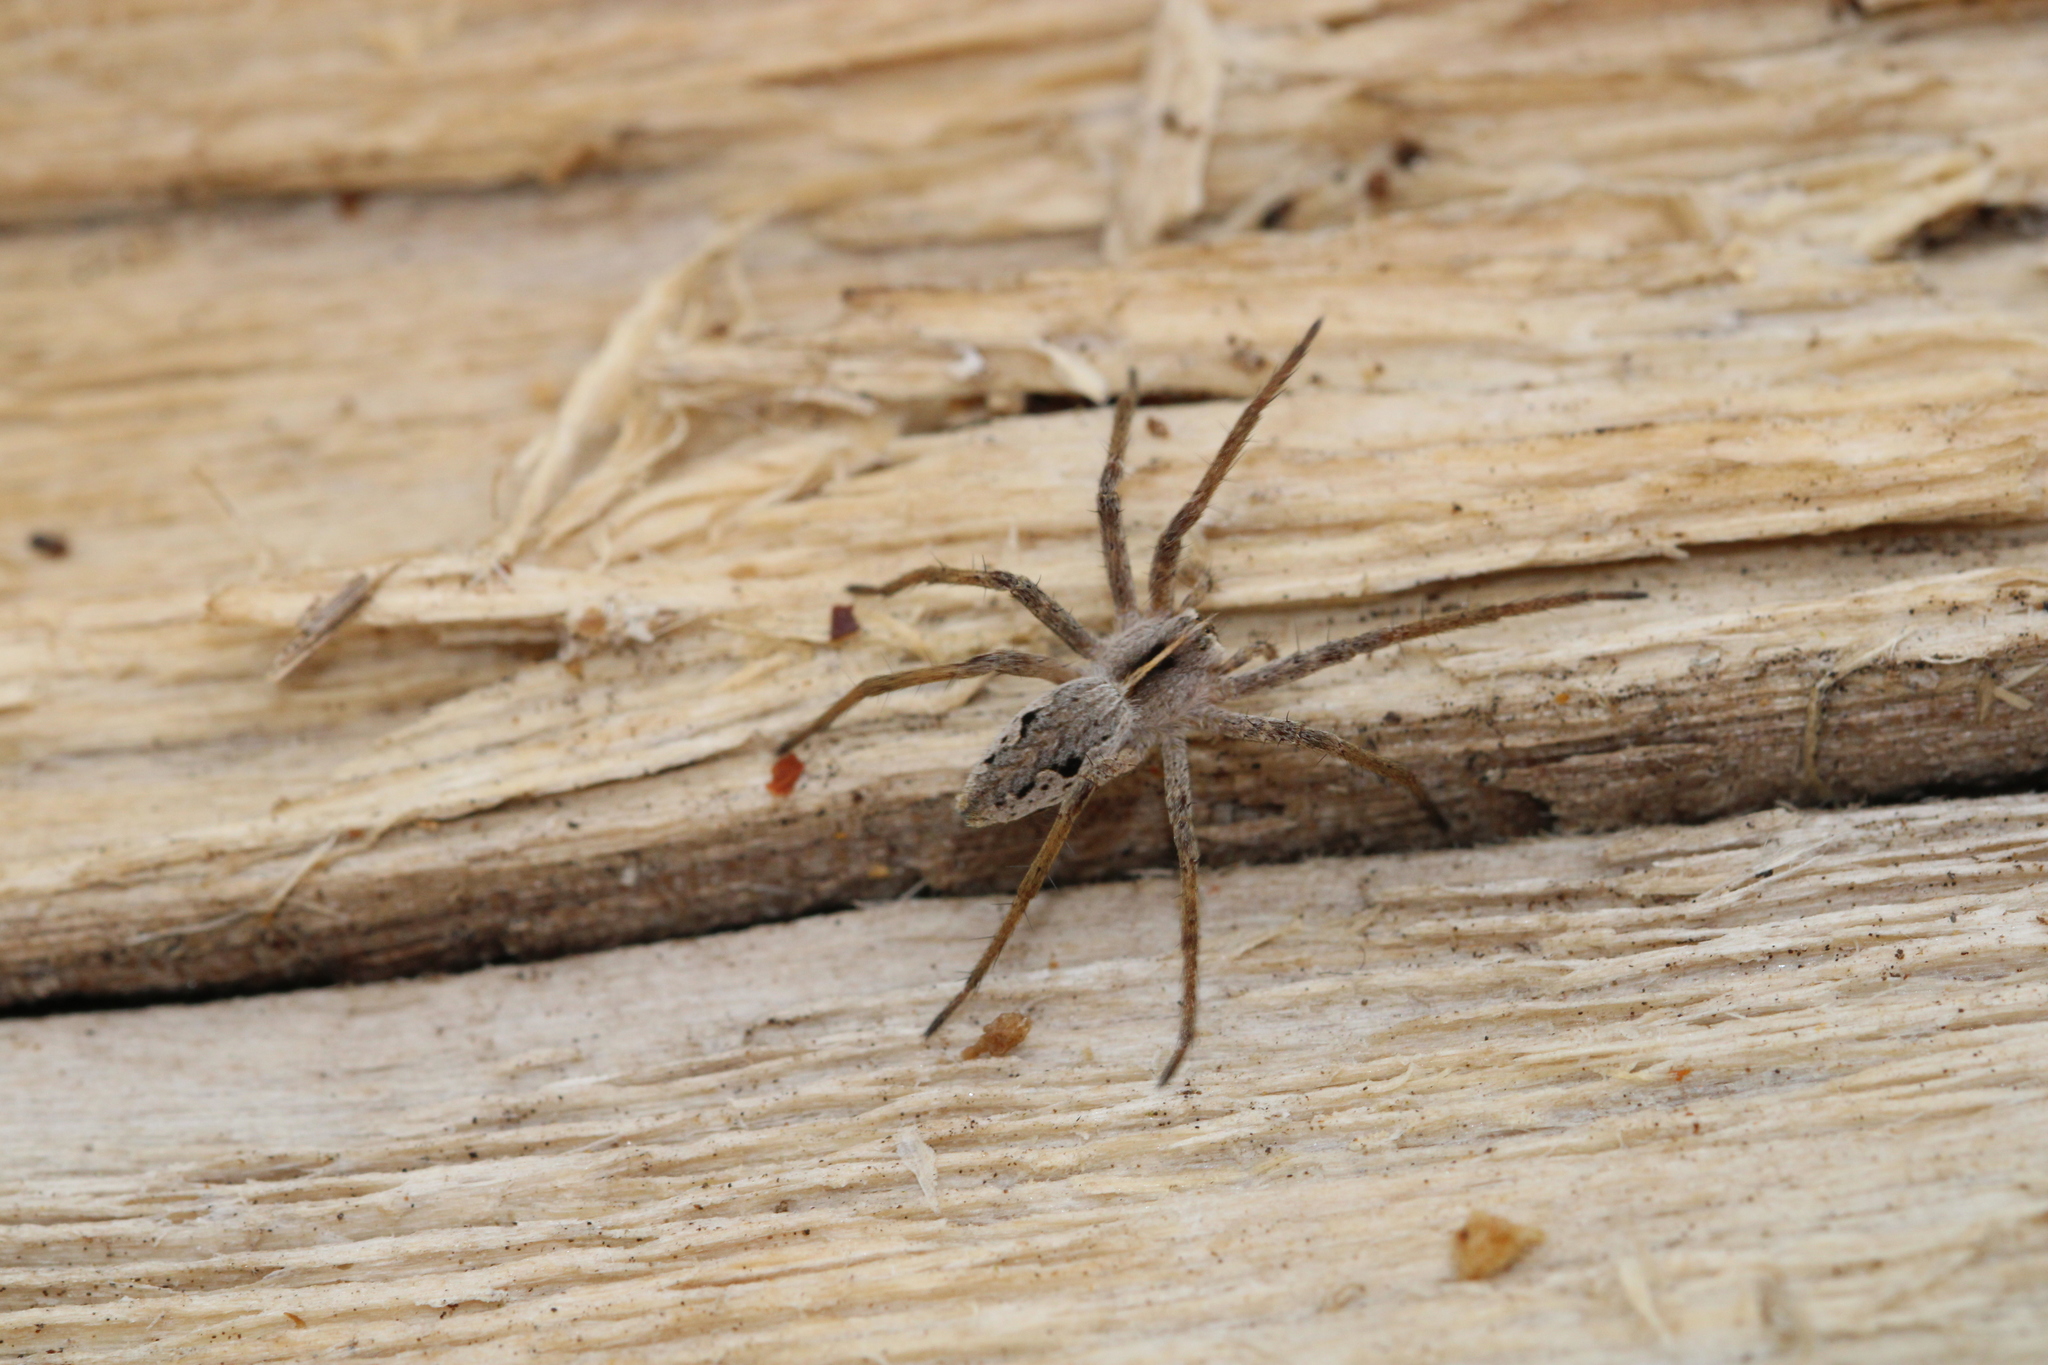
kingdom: Animalia
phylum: Arthropoda
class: Arachnida
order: Araneae
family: Pisauridae
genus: Pisaura
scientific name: Pisaura mirabilis
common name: Tent spider
